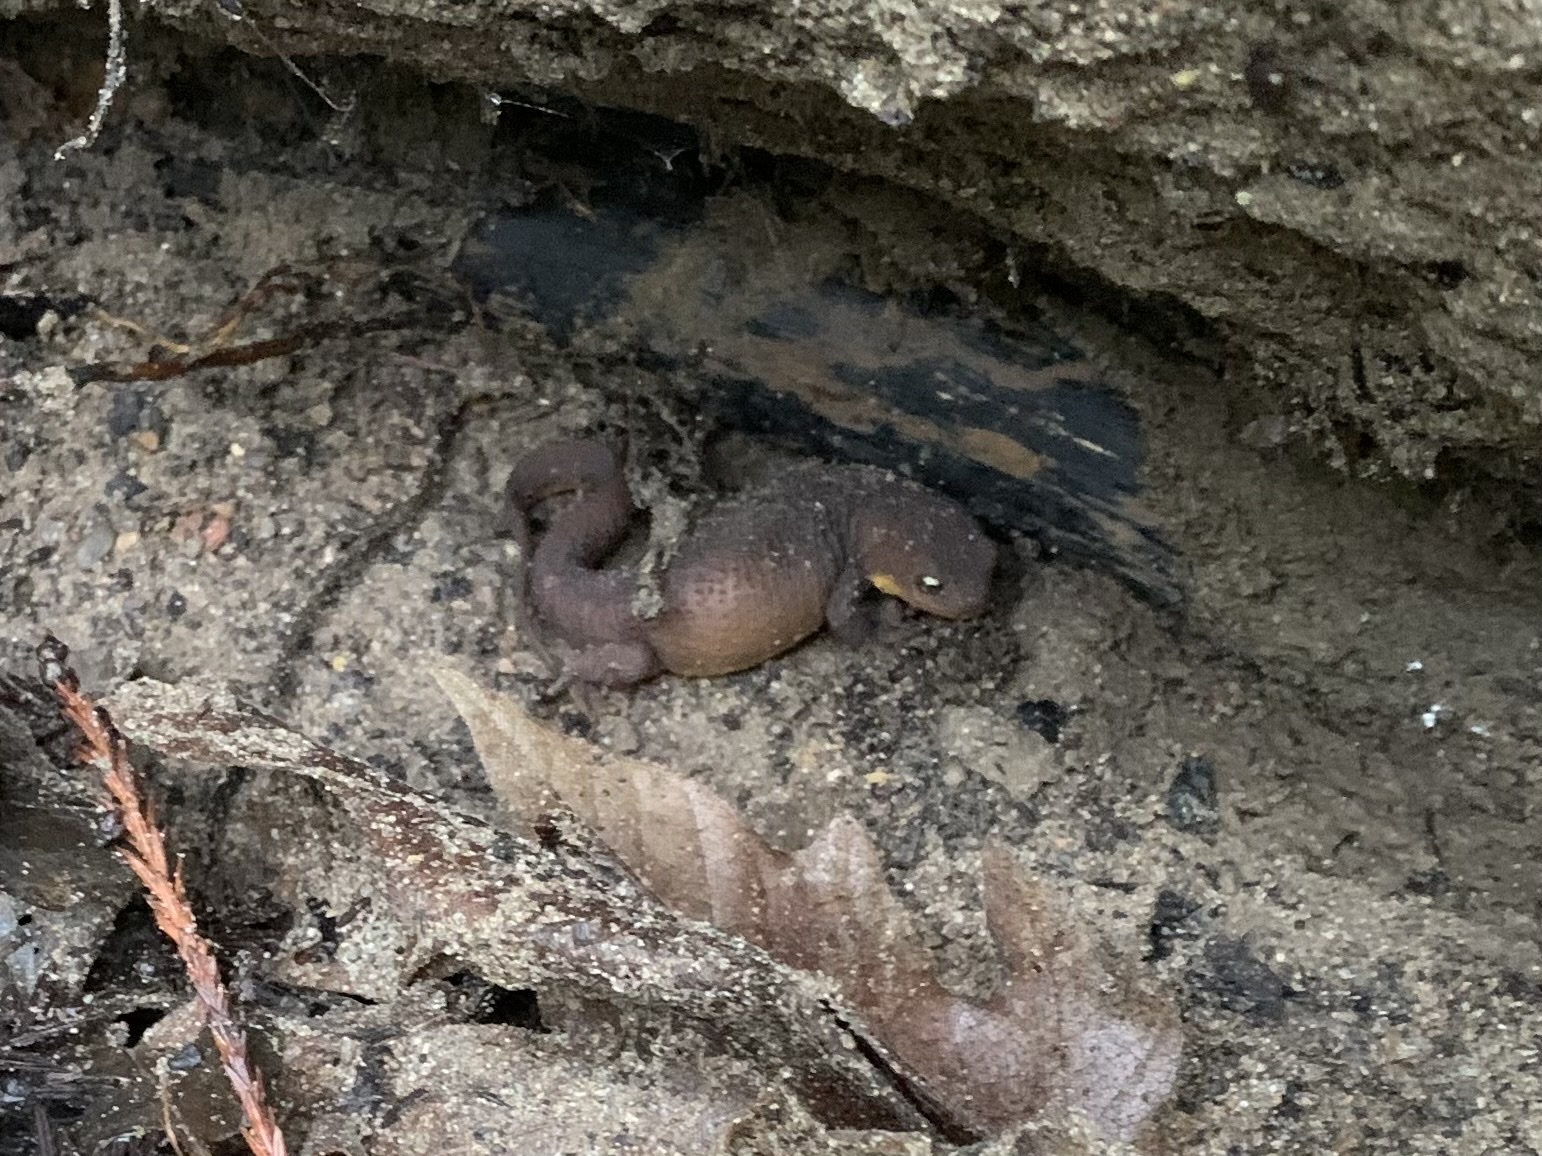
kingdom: Animalia
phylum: Chordata
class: Amphibia
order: Caudata
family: Salamandridae
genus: Taricha
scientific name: Taricha granulosa
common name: Roughskin newt
